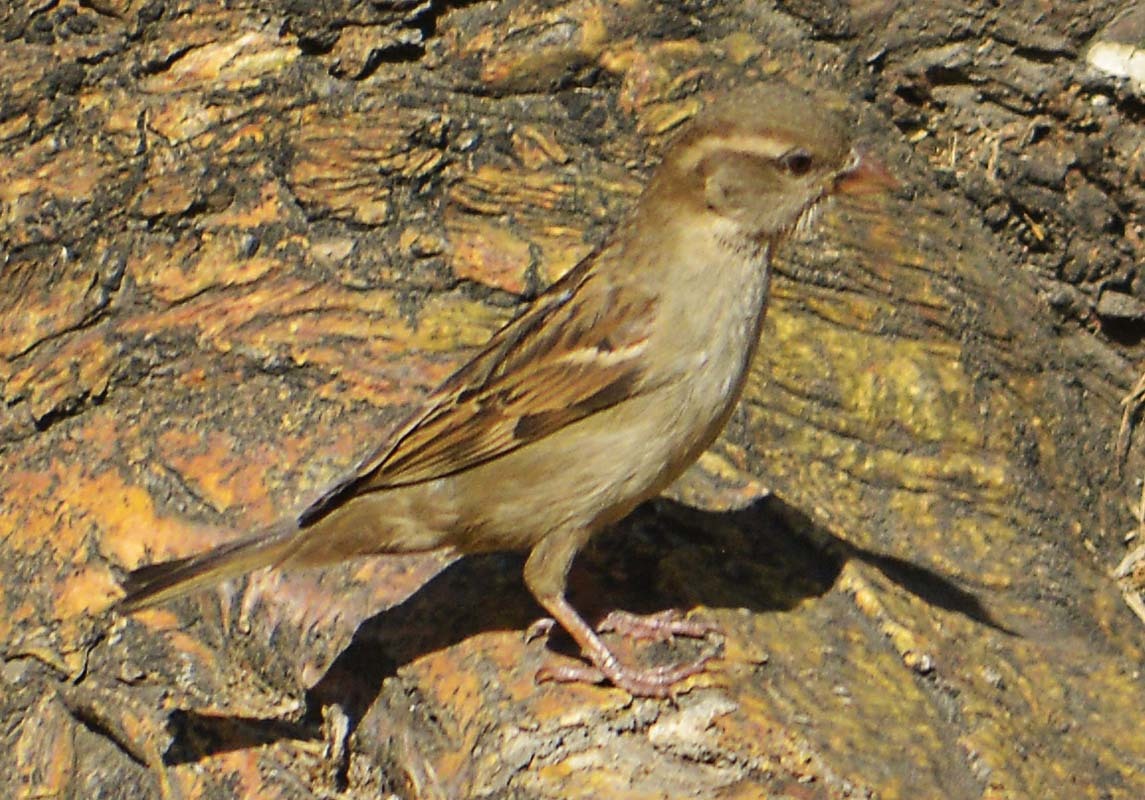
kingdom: Animalia
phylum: Chordata
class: Aves
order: Passeriformes
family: Passeridae
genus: Passer
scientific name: Passer domesticus
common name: House sparrow
